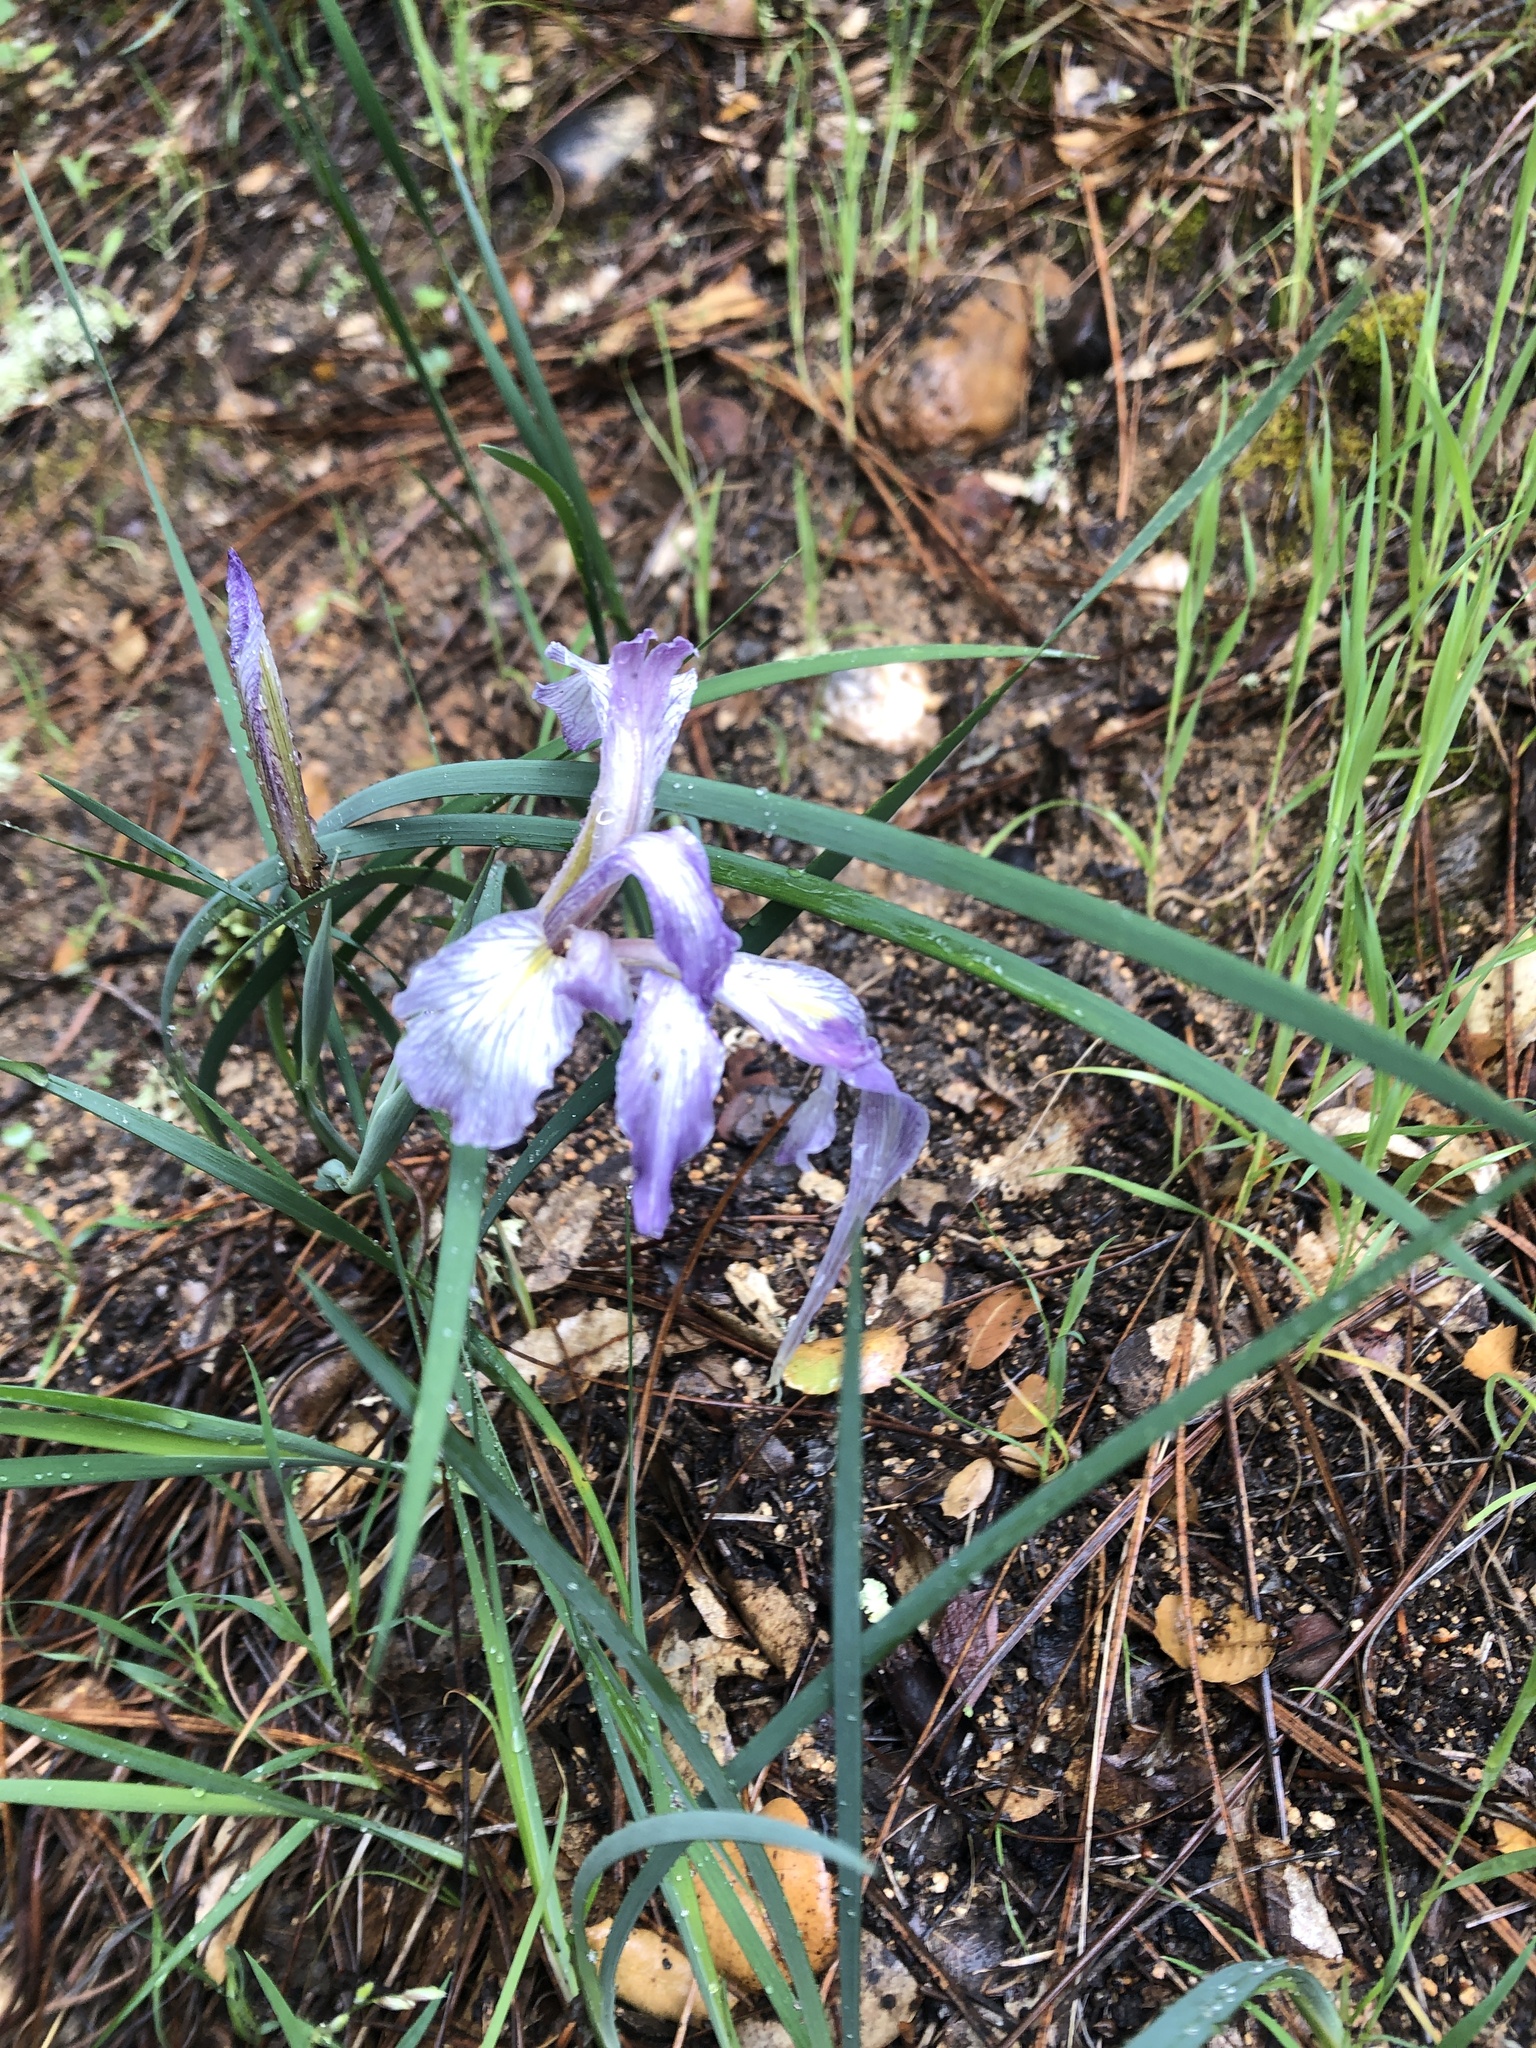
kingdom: Plantae
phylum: Tracheophyta
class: Liliopsida
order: Asparagales
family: Iridaceae
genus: Iris
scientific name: Iris macrosiphon
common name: Ground iris
